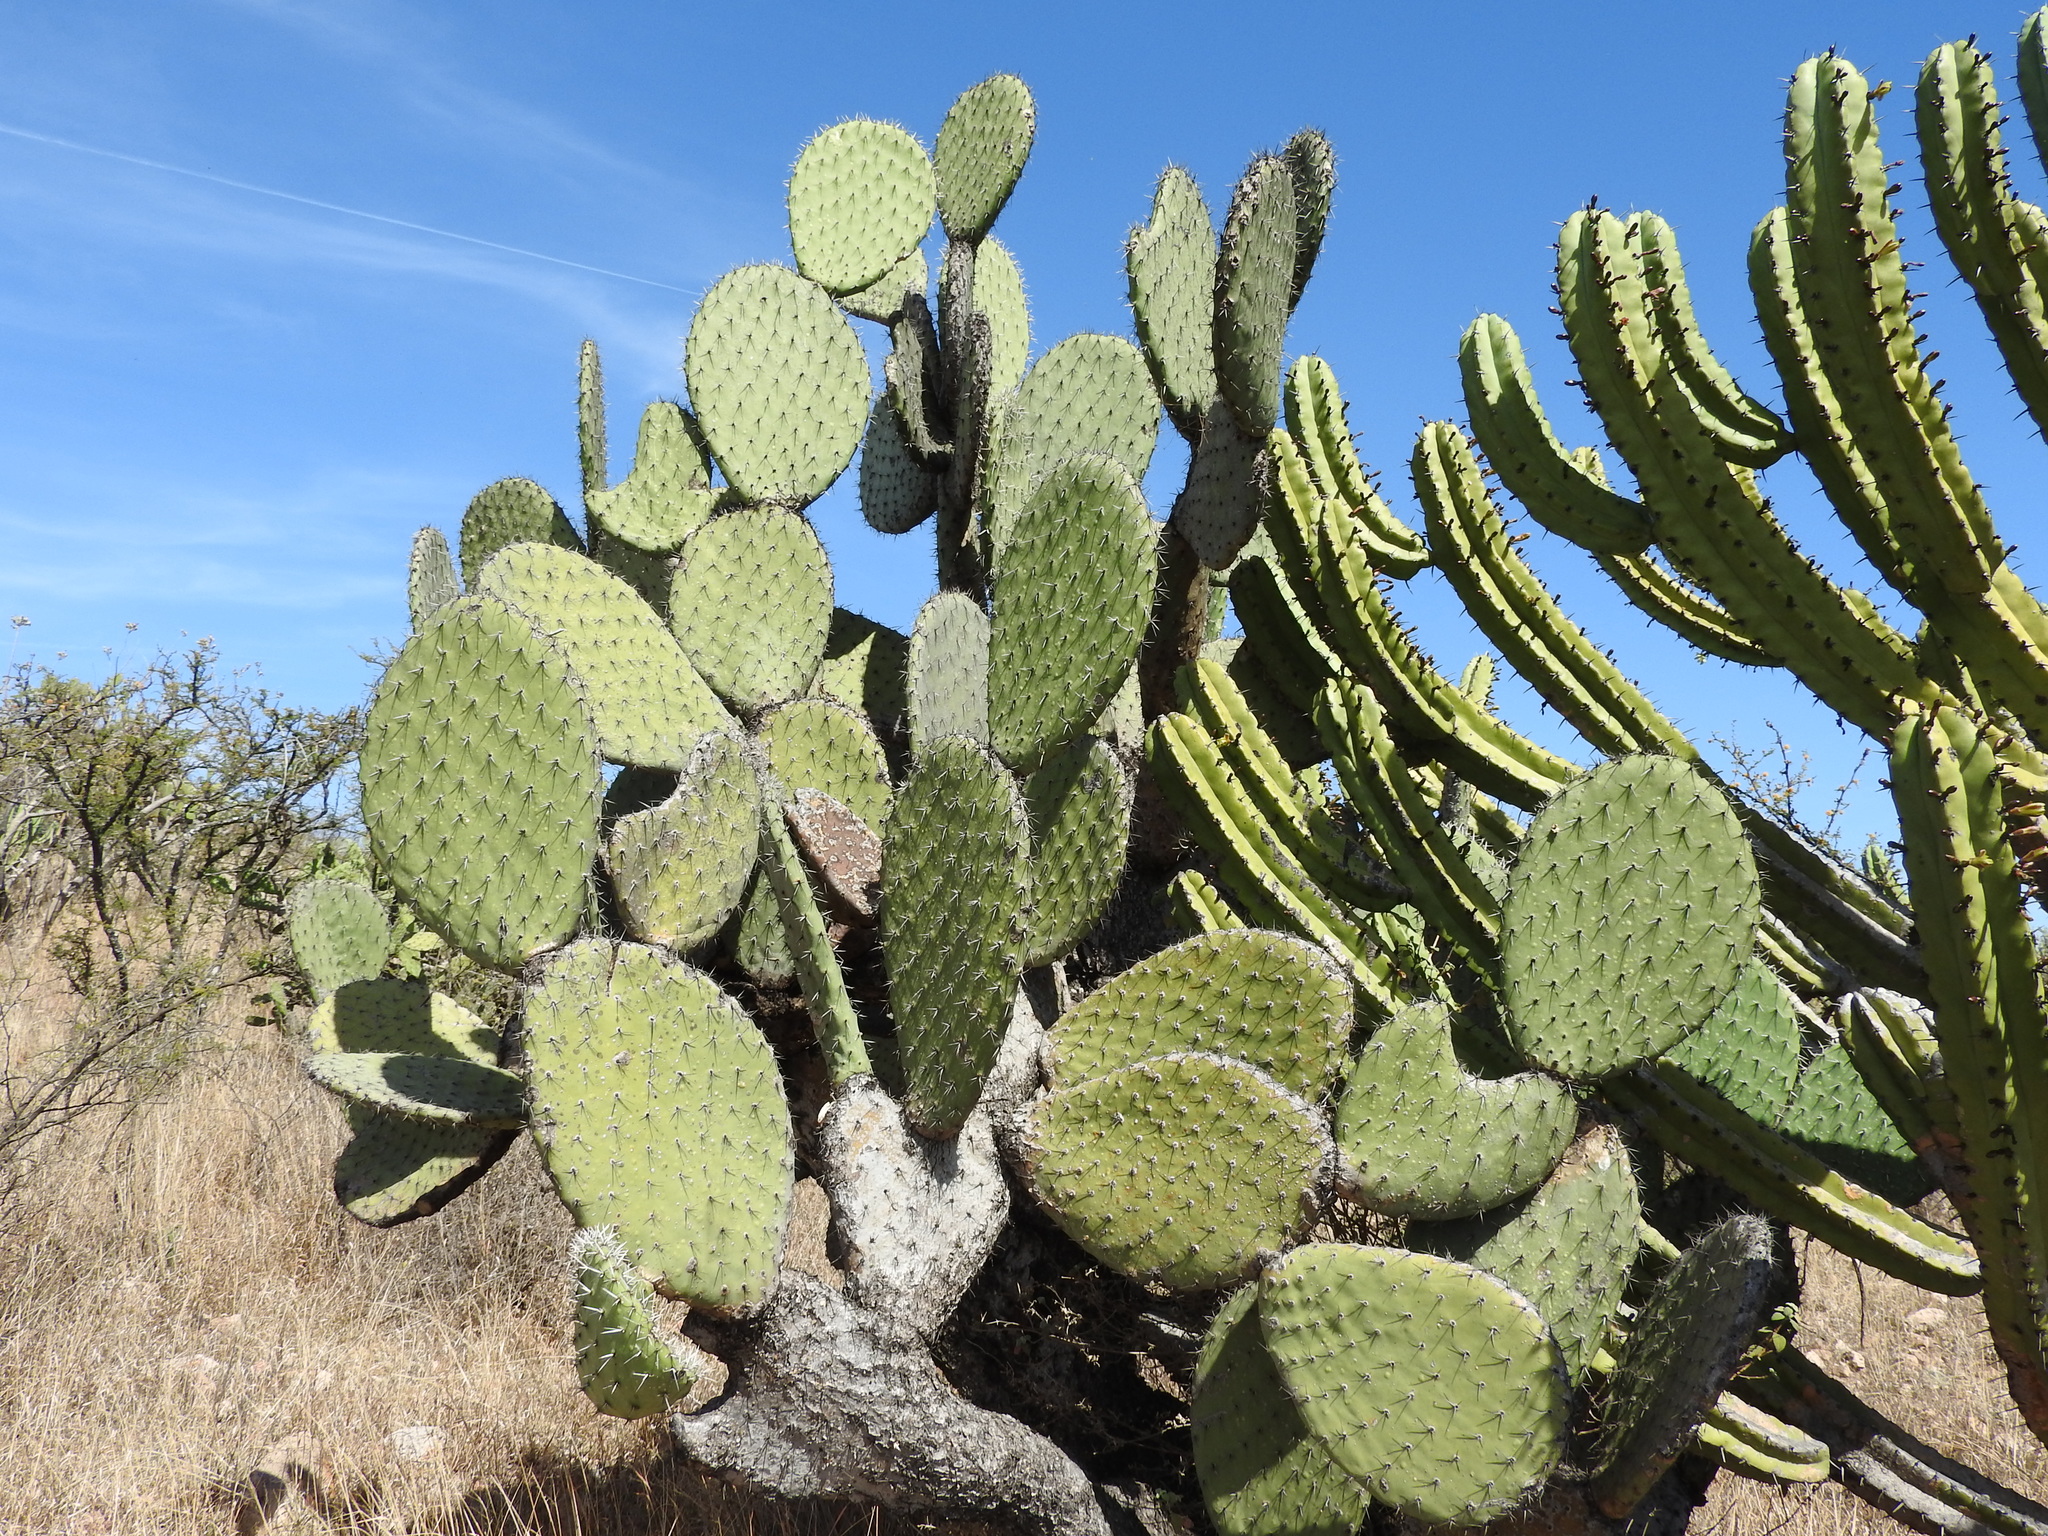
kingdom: Plantae
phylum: Tracheophyta
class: Magnoliopsida
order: Caryophyllales
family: Cactaceae
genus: Opuntia
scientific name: Opuntia streptacantha
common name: Gracemere-pear
